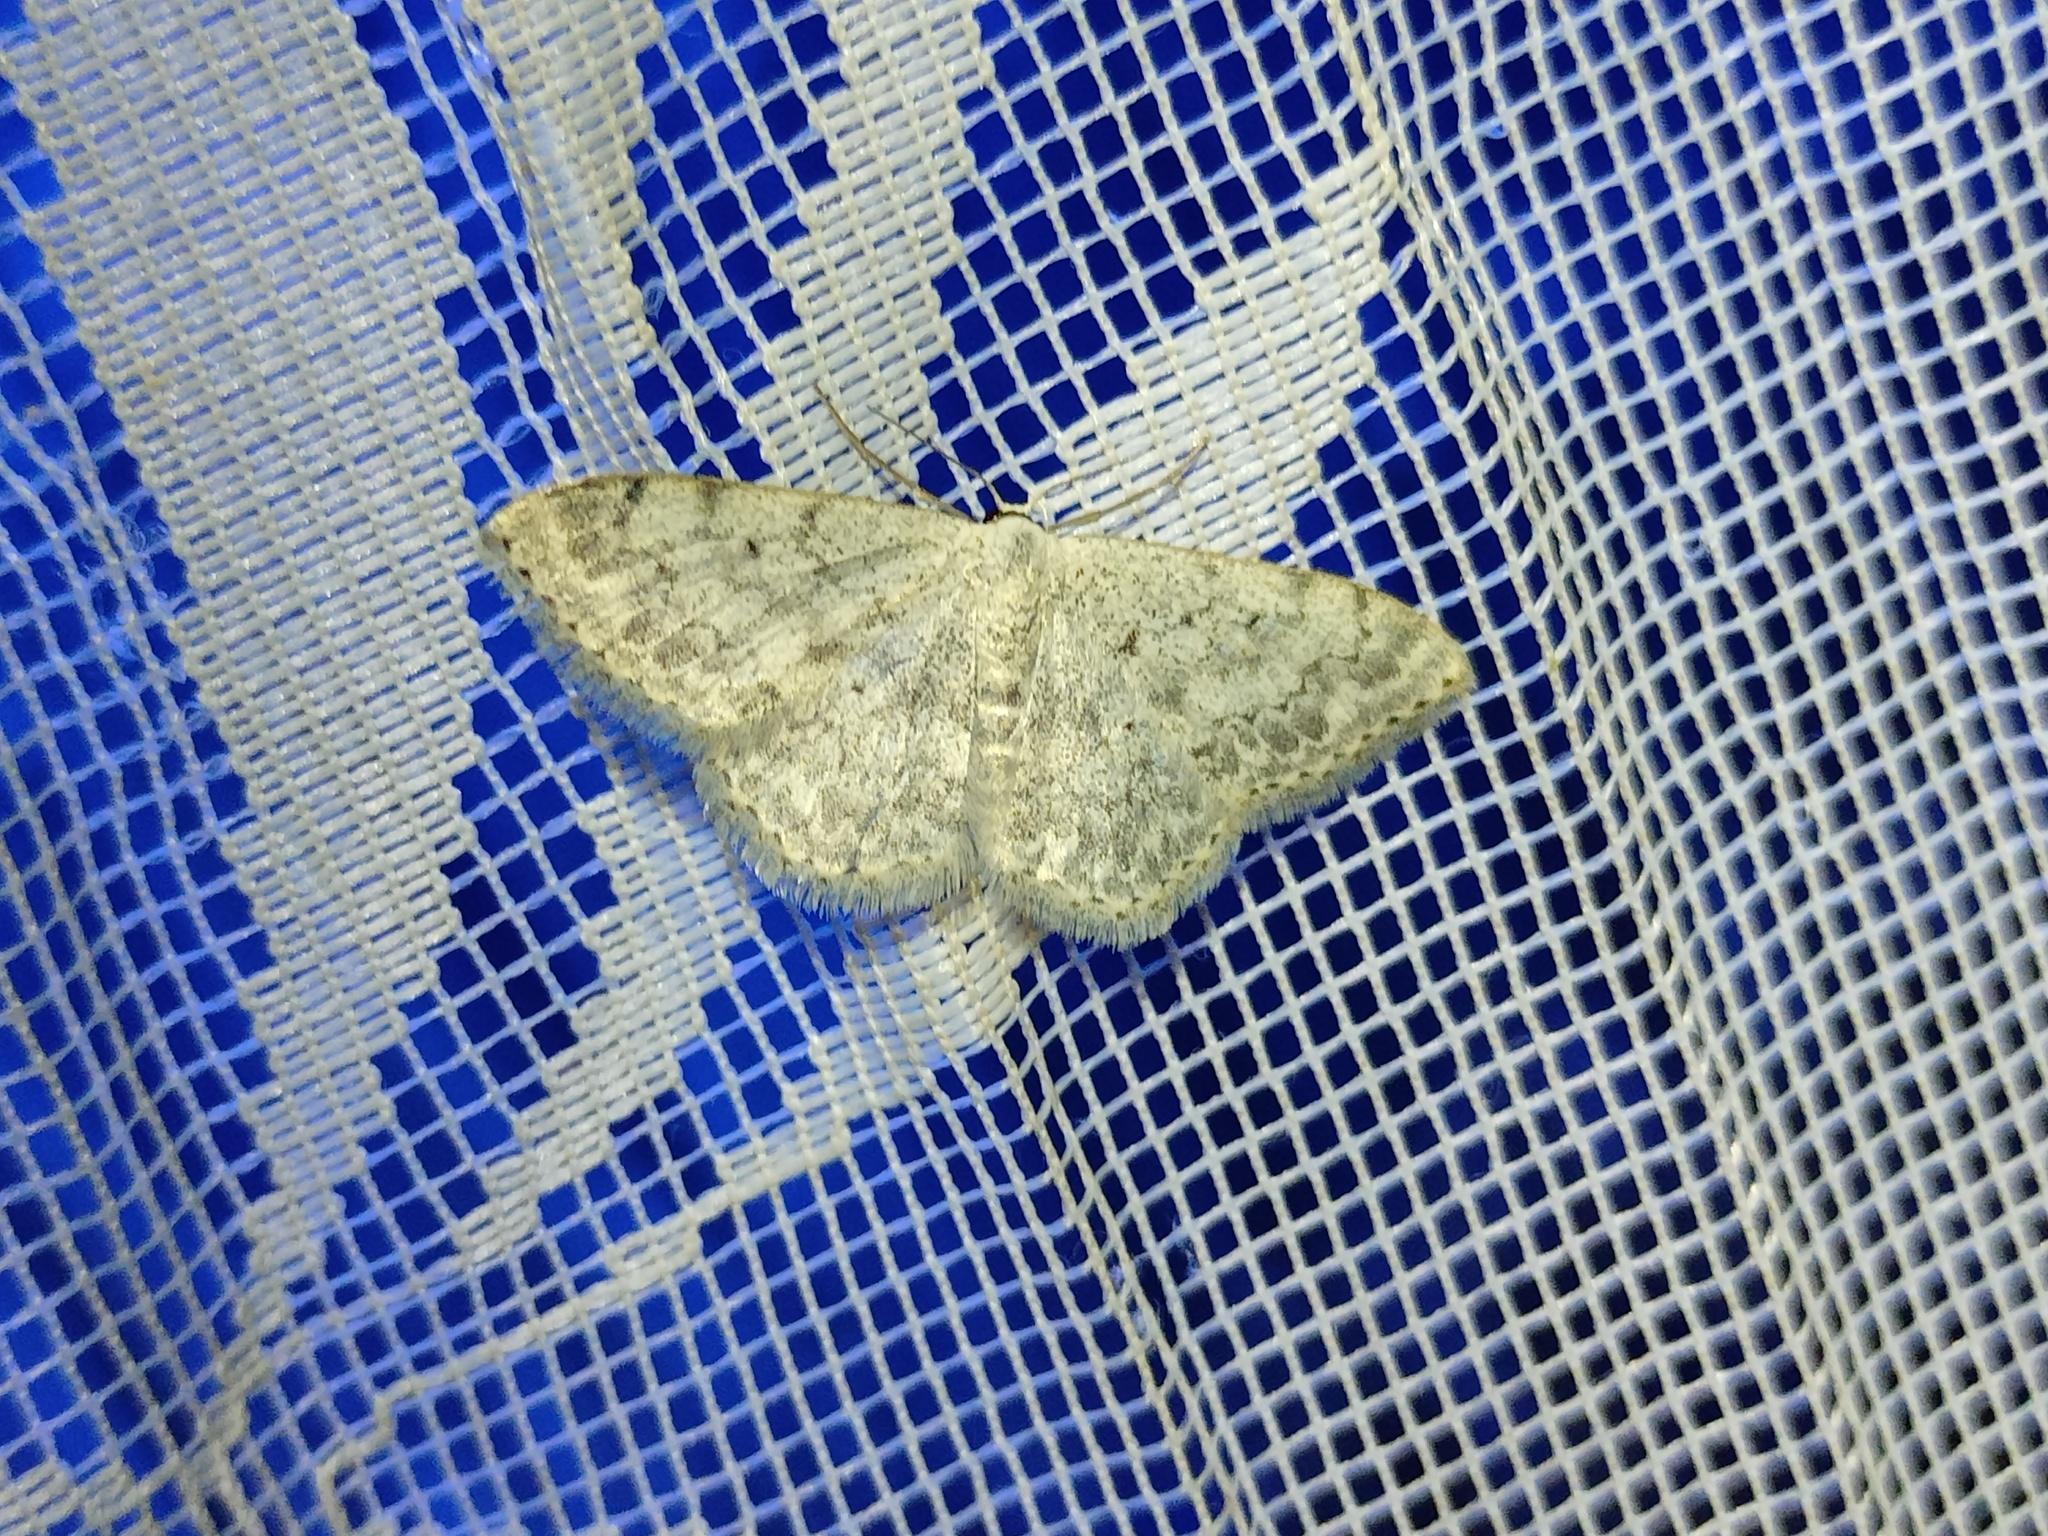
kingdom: Animalia
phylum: Arthropoda
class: Insecta
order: Lepidoptera
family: Geometridae
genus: Scopula
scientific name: Scopula marginepunctata
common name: Mullein wave
